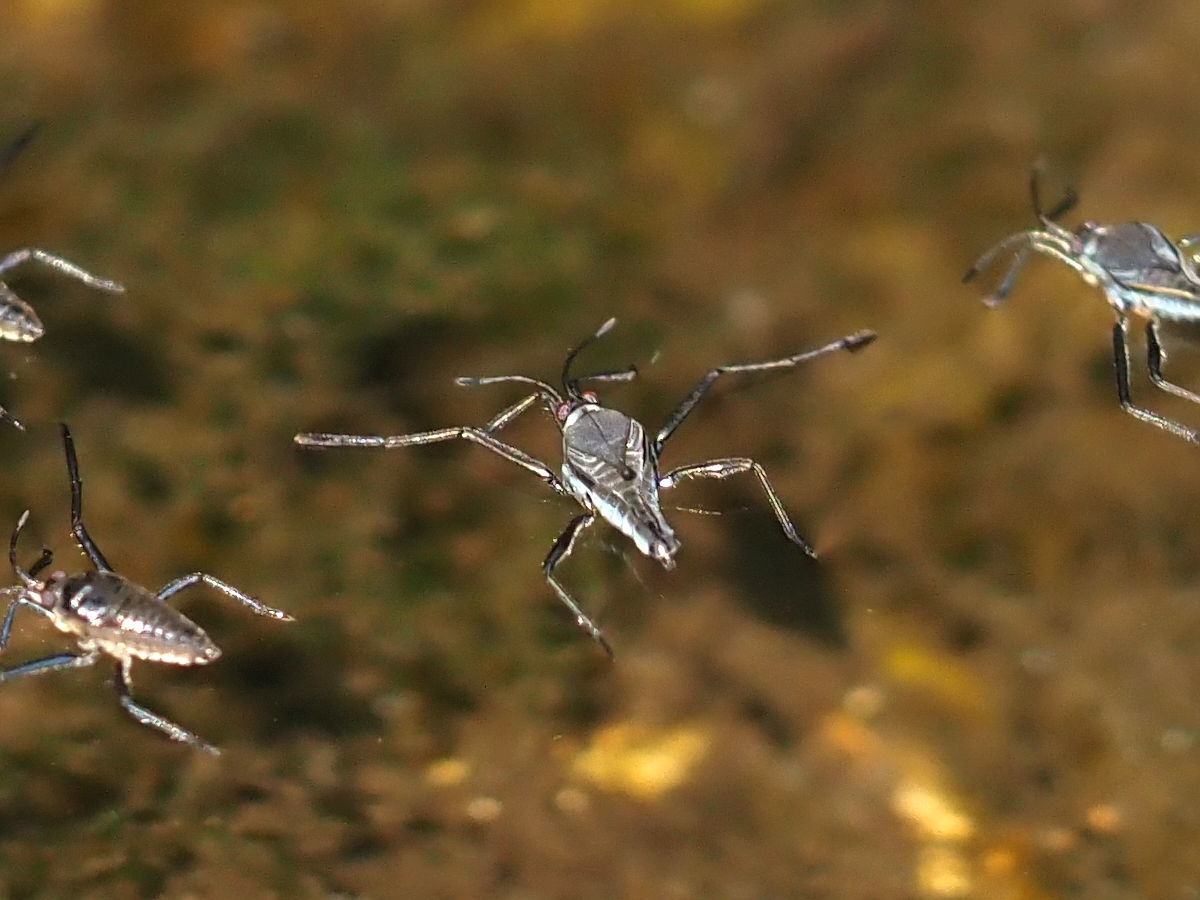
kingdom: Animalia
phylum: Arthropoda
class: Insecta
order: Hemiptera
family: Veliidae
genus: Rhagovelia
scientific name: Rhagovelia oriander
